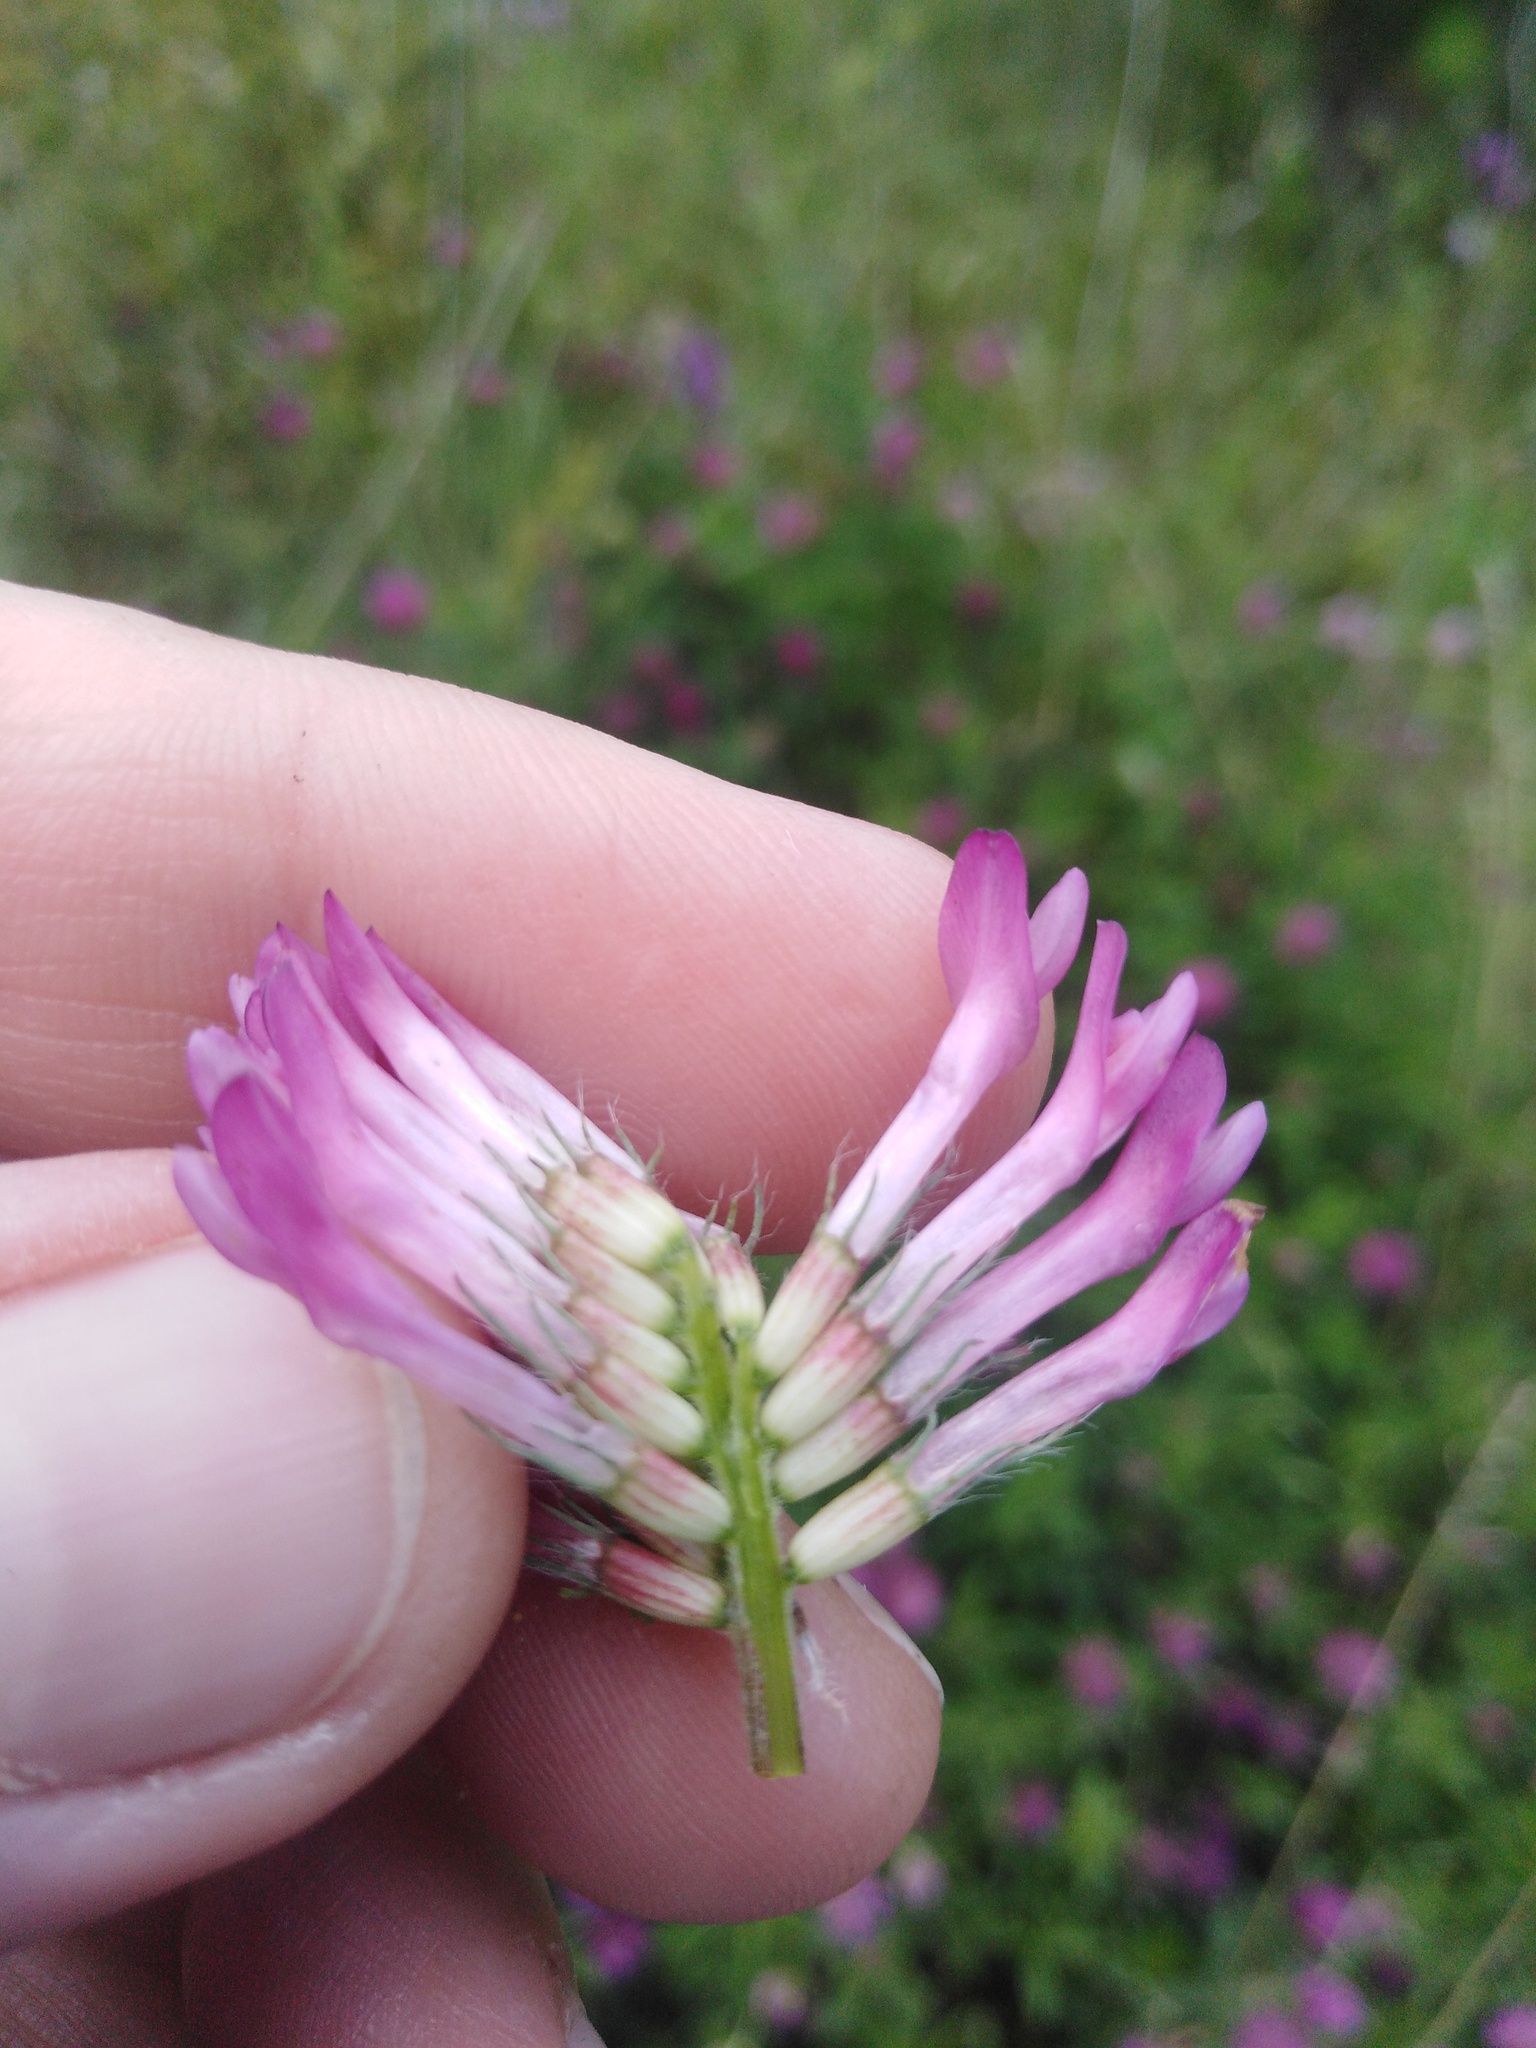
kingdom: Plantae
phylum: Tracheophyta
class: Magnoliopsida
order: Fabales
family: Fabaceae
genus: Trifolium
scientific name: Trifolium medium
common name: Zigzag clover
